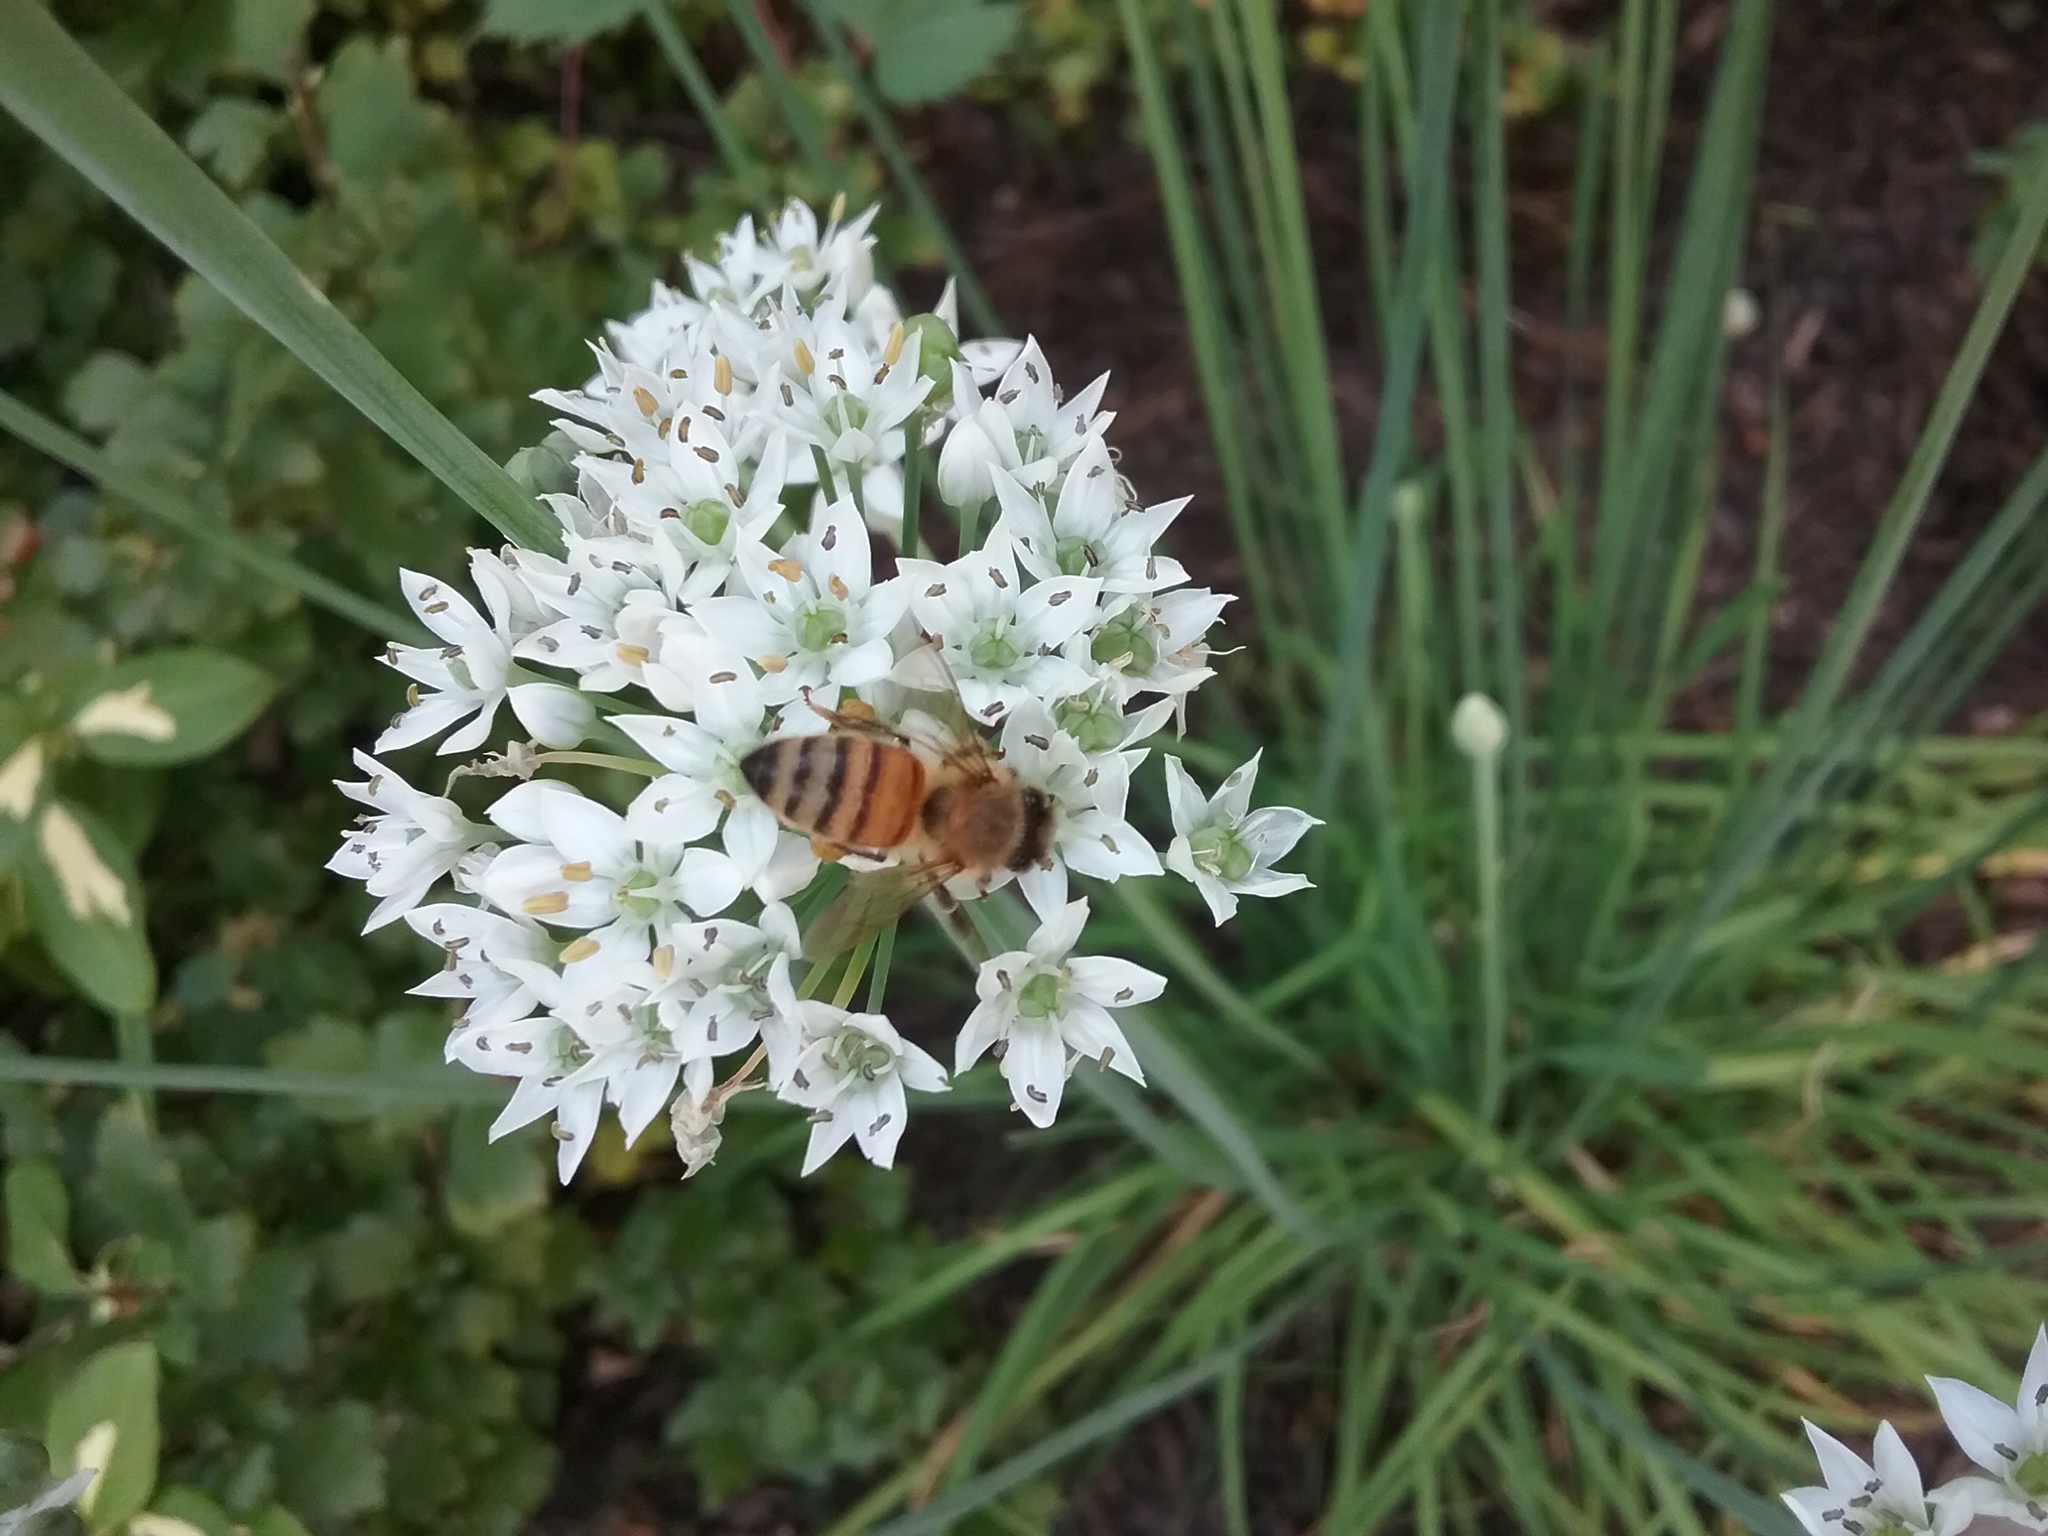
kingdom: Animalia
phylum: Arthropoda
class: Insecta
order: Hymenoptera
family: Apidae
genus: Apis
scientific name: Apis mellifera
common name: Honey bee
